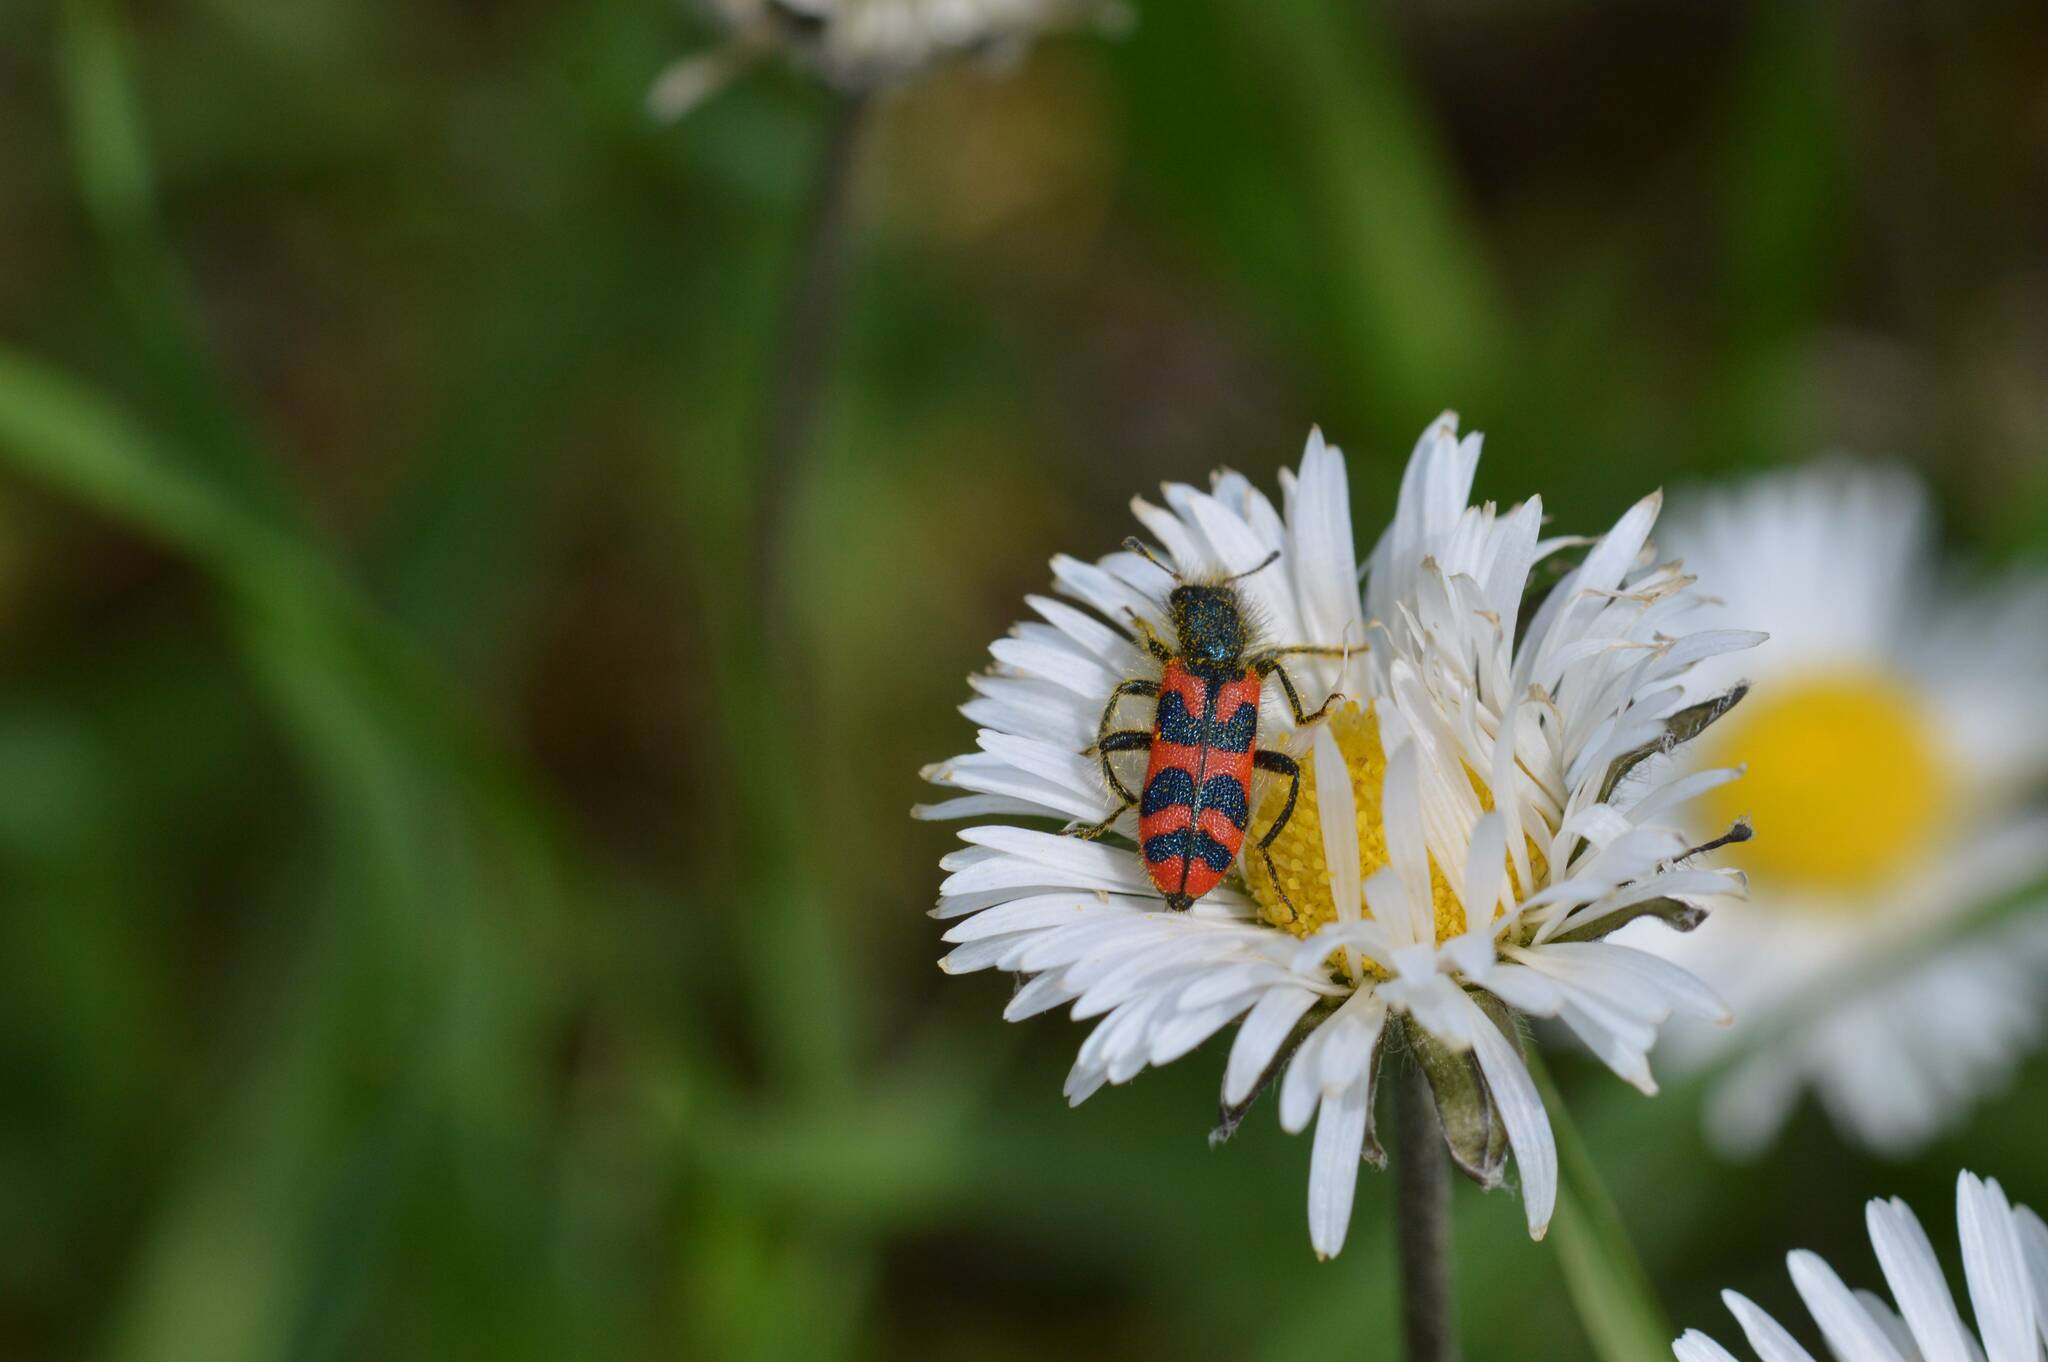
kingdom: Animalia
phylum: Arthropoda
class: Insecta
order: Coleoptera
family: Cleridae
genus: Trichodes
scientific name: Trichodes umbellatarum
